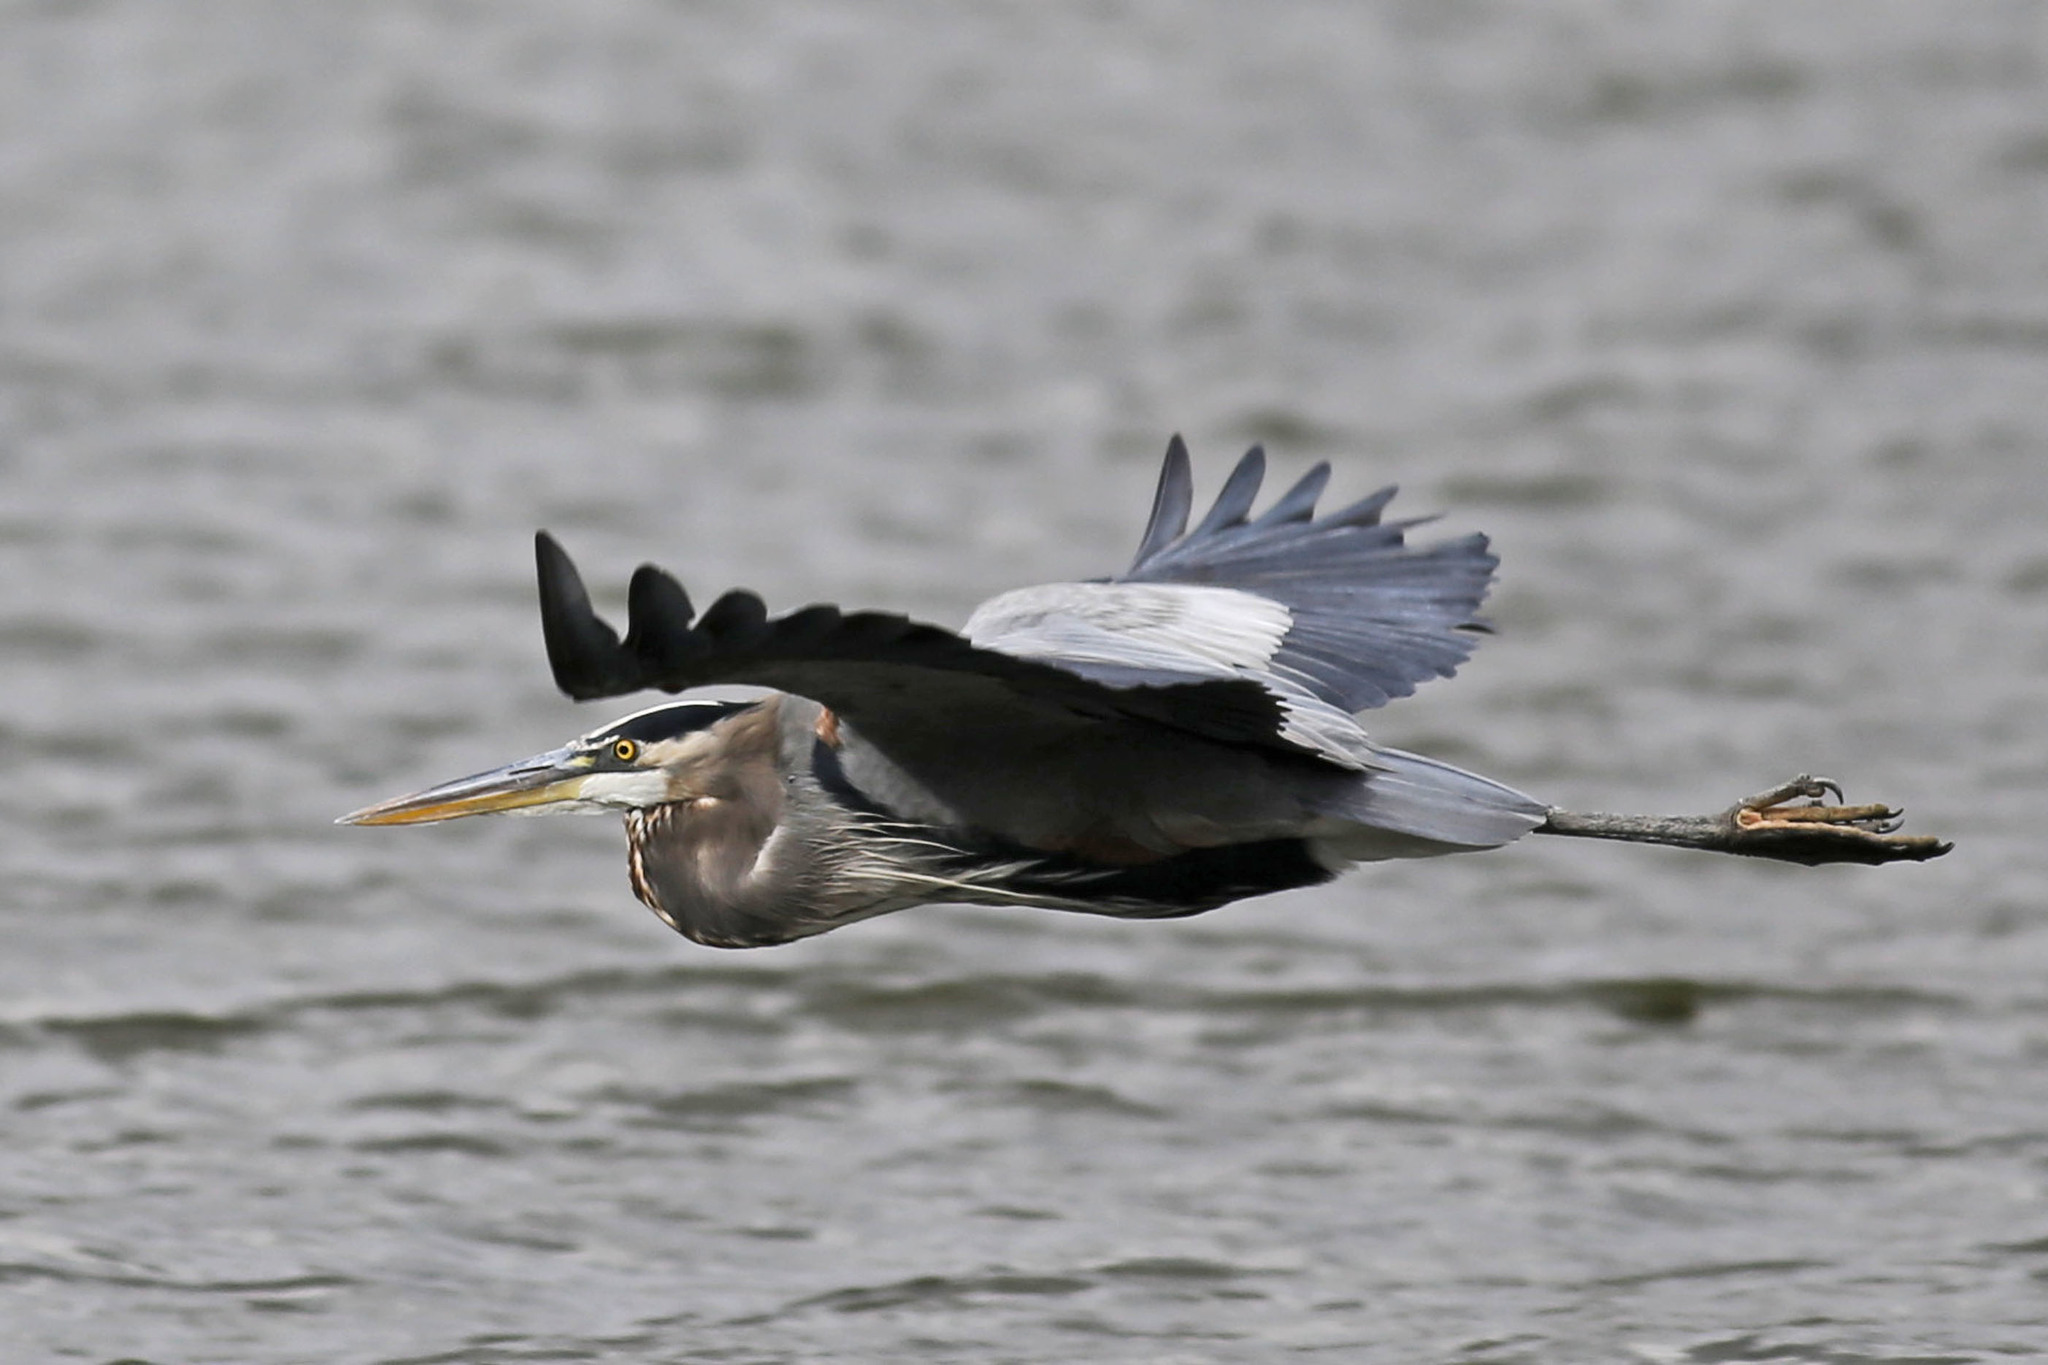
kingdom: Animalia
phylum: Chordata
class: Aves
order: Pelecaniformes
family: Ardeidae
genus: Ardea
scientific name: Ardea herodias
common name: Great blue heron
